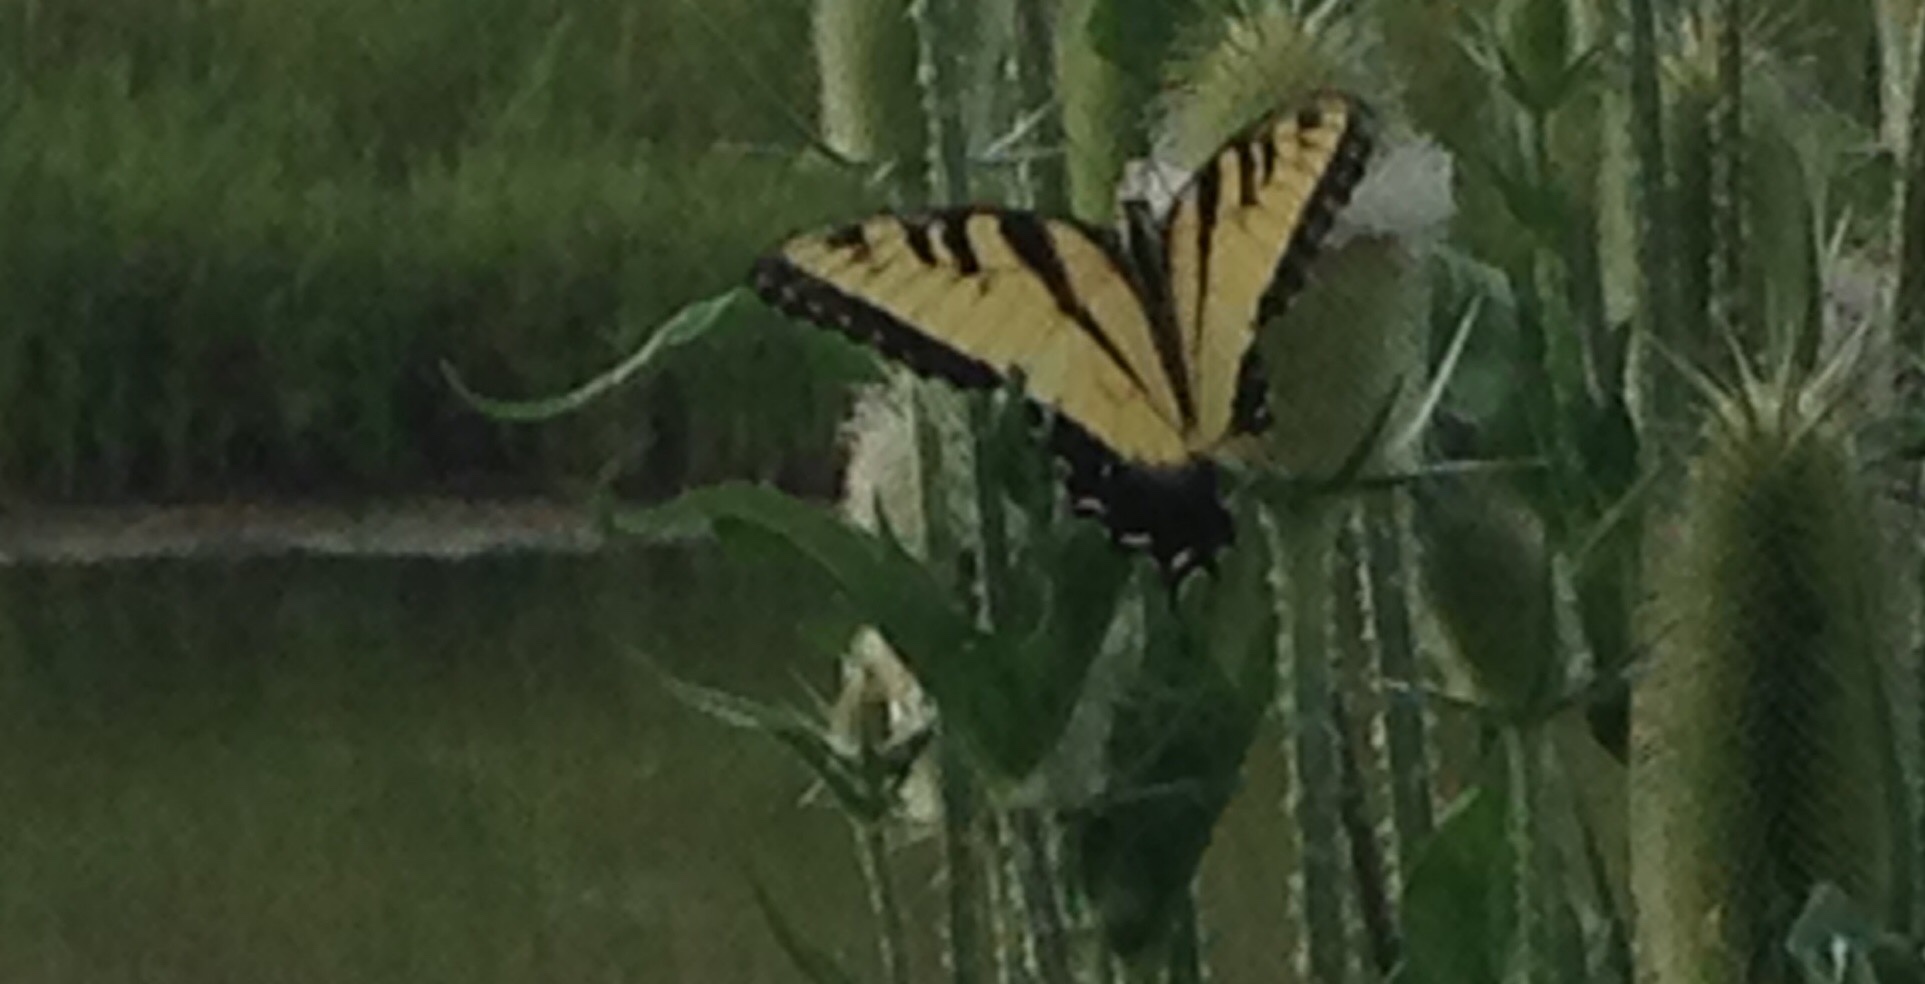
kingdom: Animalia
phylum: Arthropoda
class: Insecta
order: Lepidoptera
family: Papilionidae
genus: Papilio
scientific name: Papilio glaucus
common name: Tiger swallowtail
